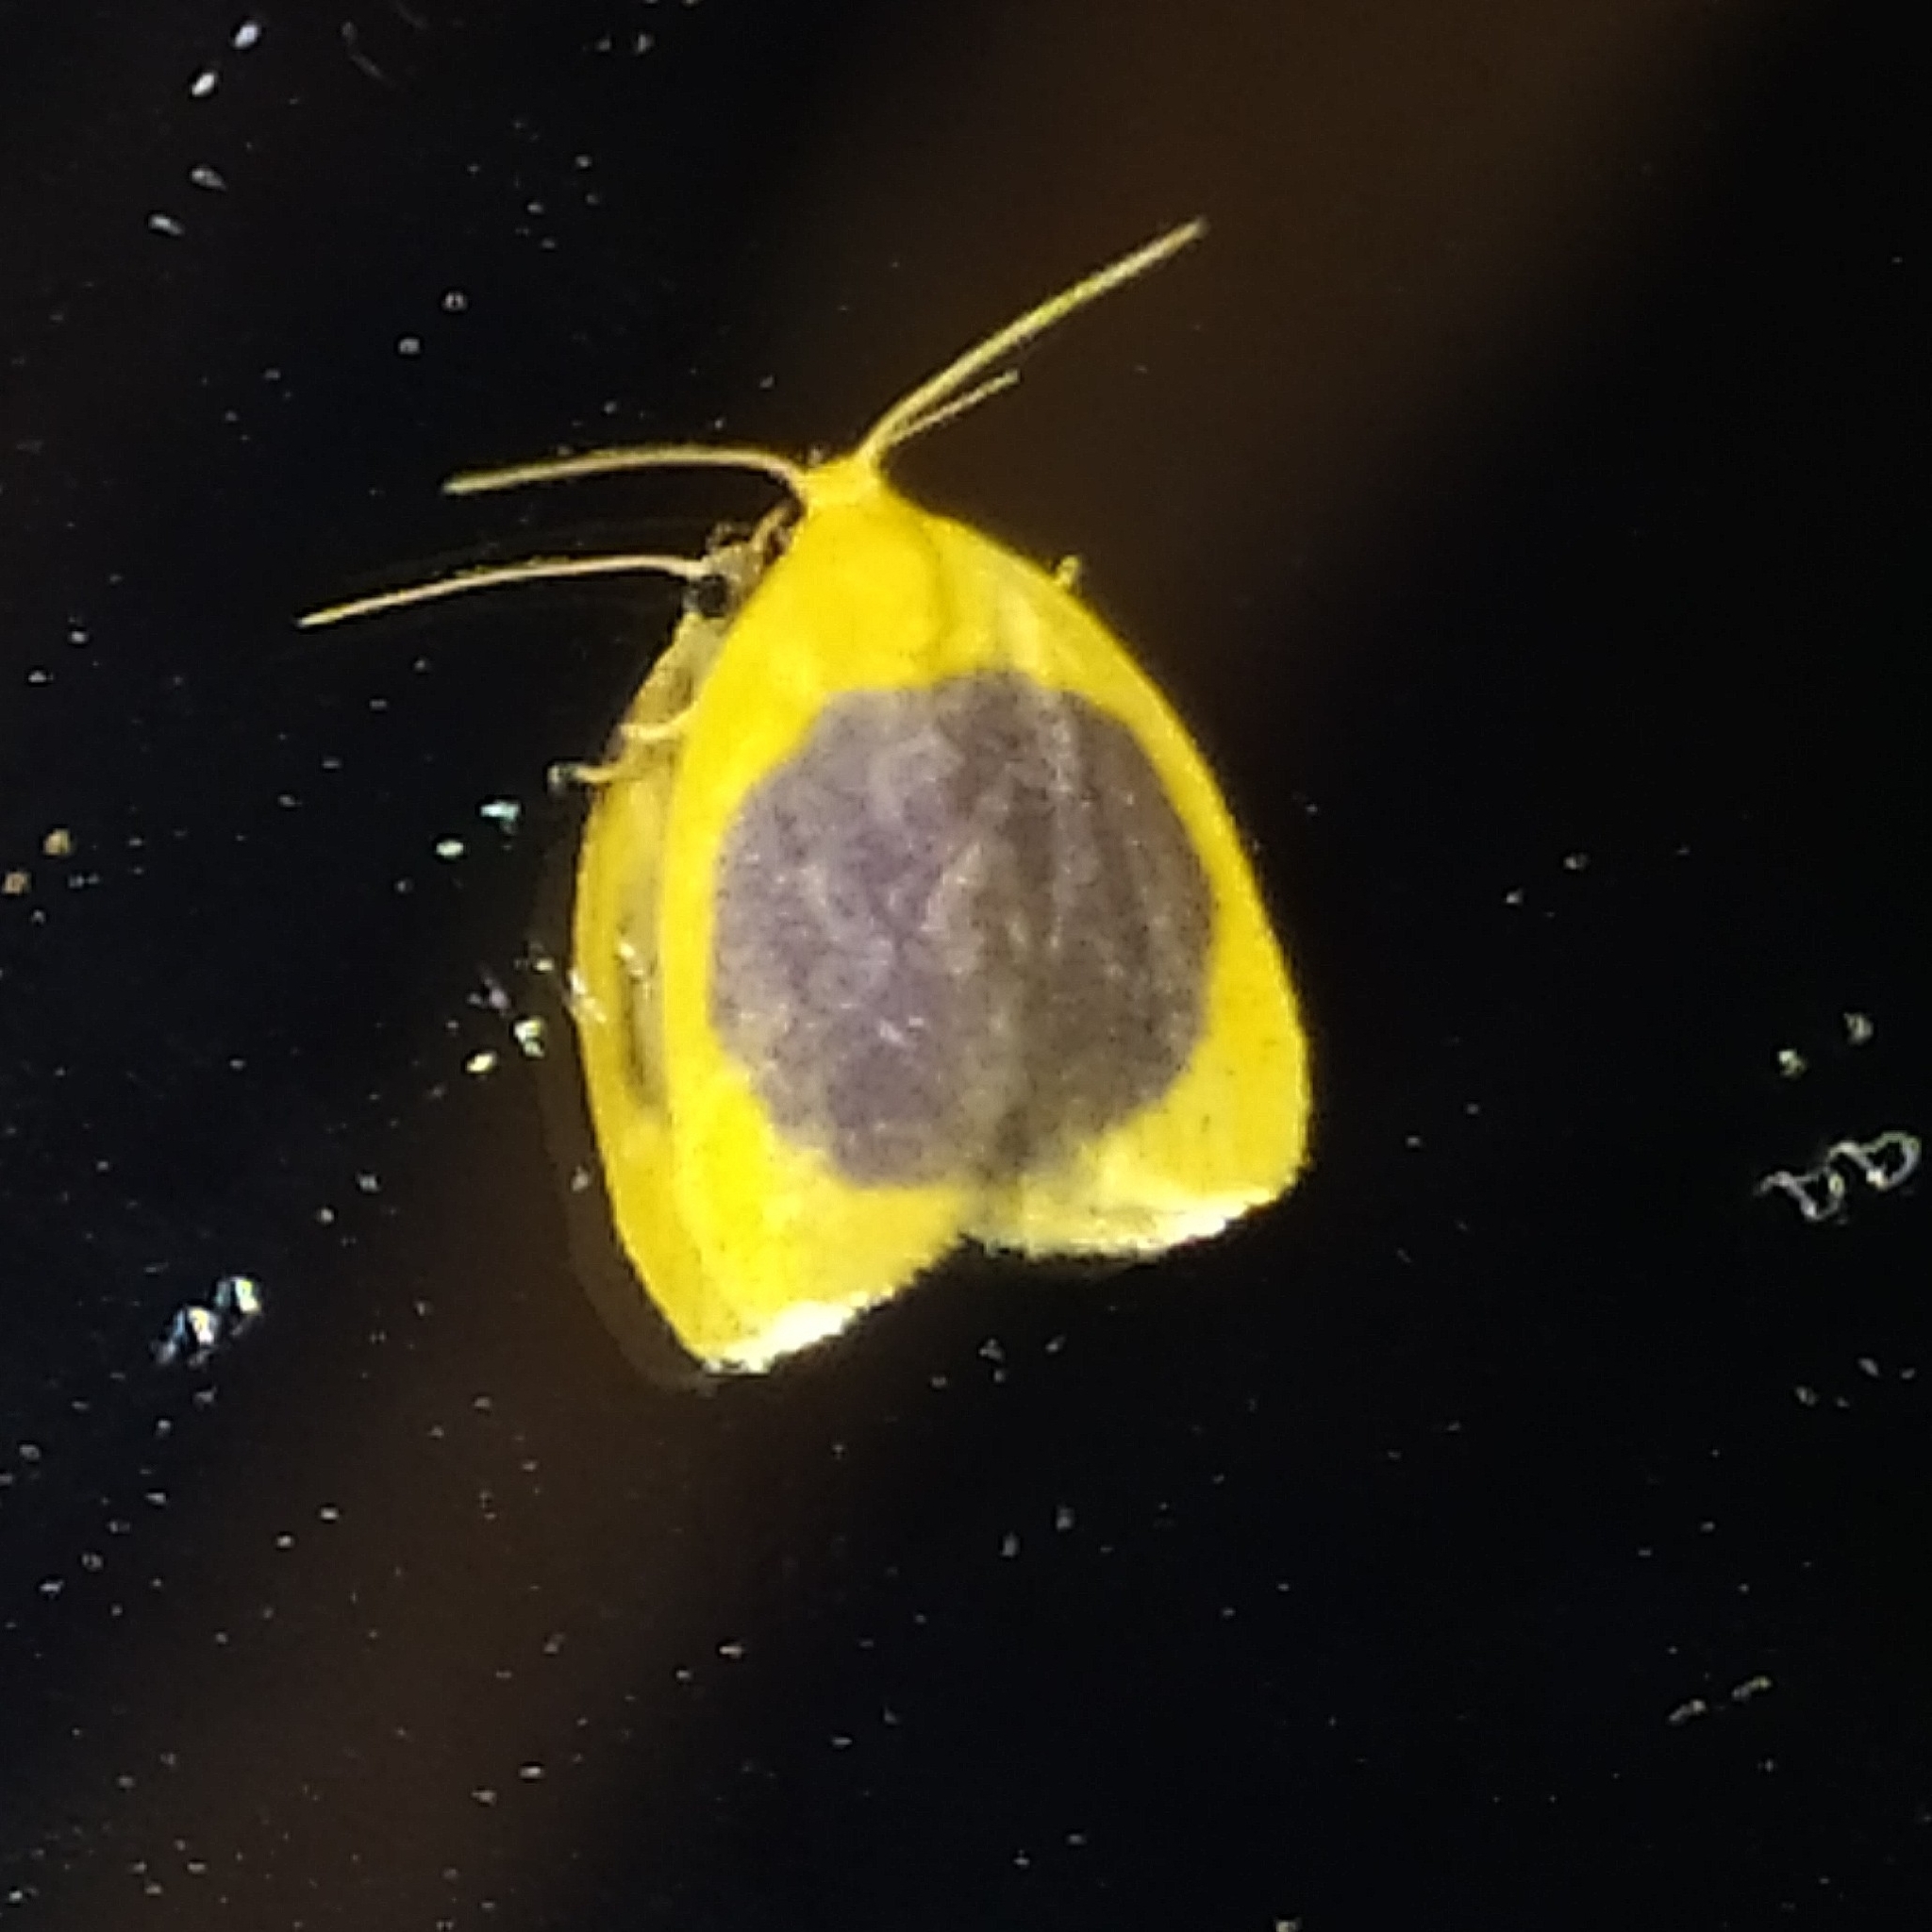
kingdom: Animalia
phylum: Arthropoda
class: Insecta
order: Lepidoptera
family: Erebidae
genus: Pronola
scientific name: Pronola magniplaga
